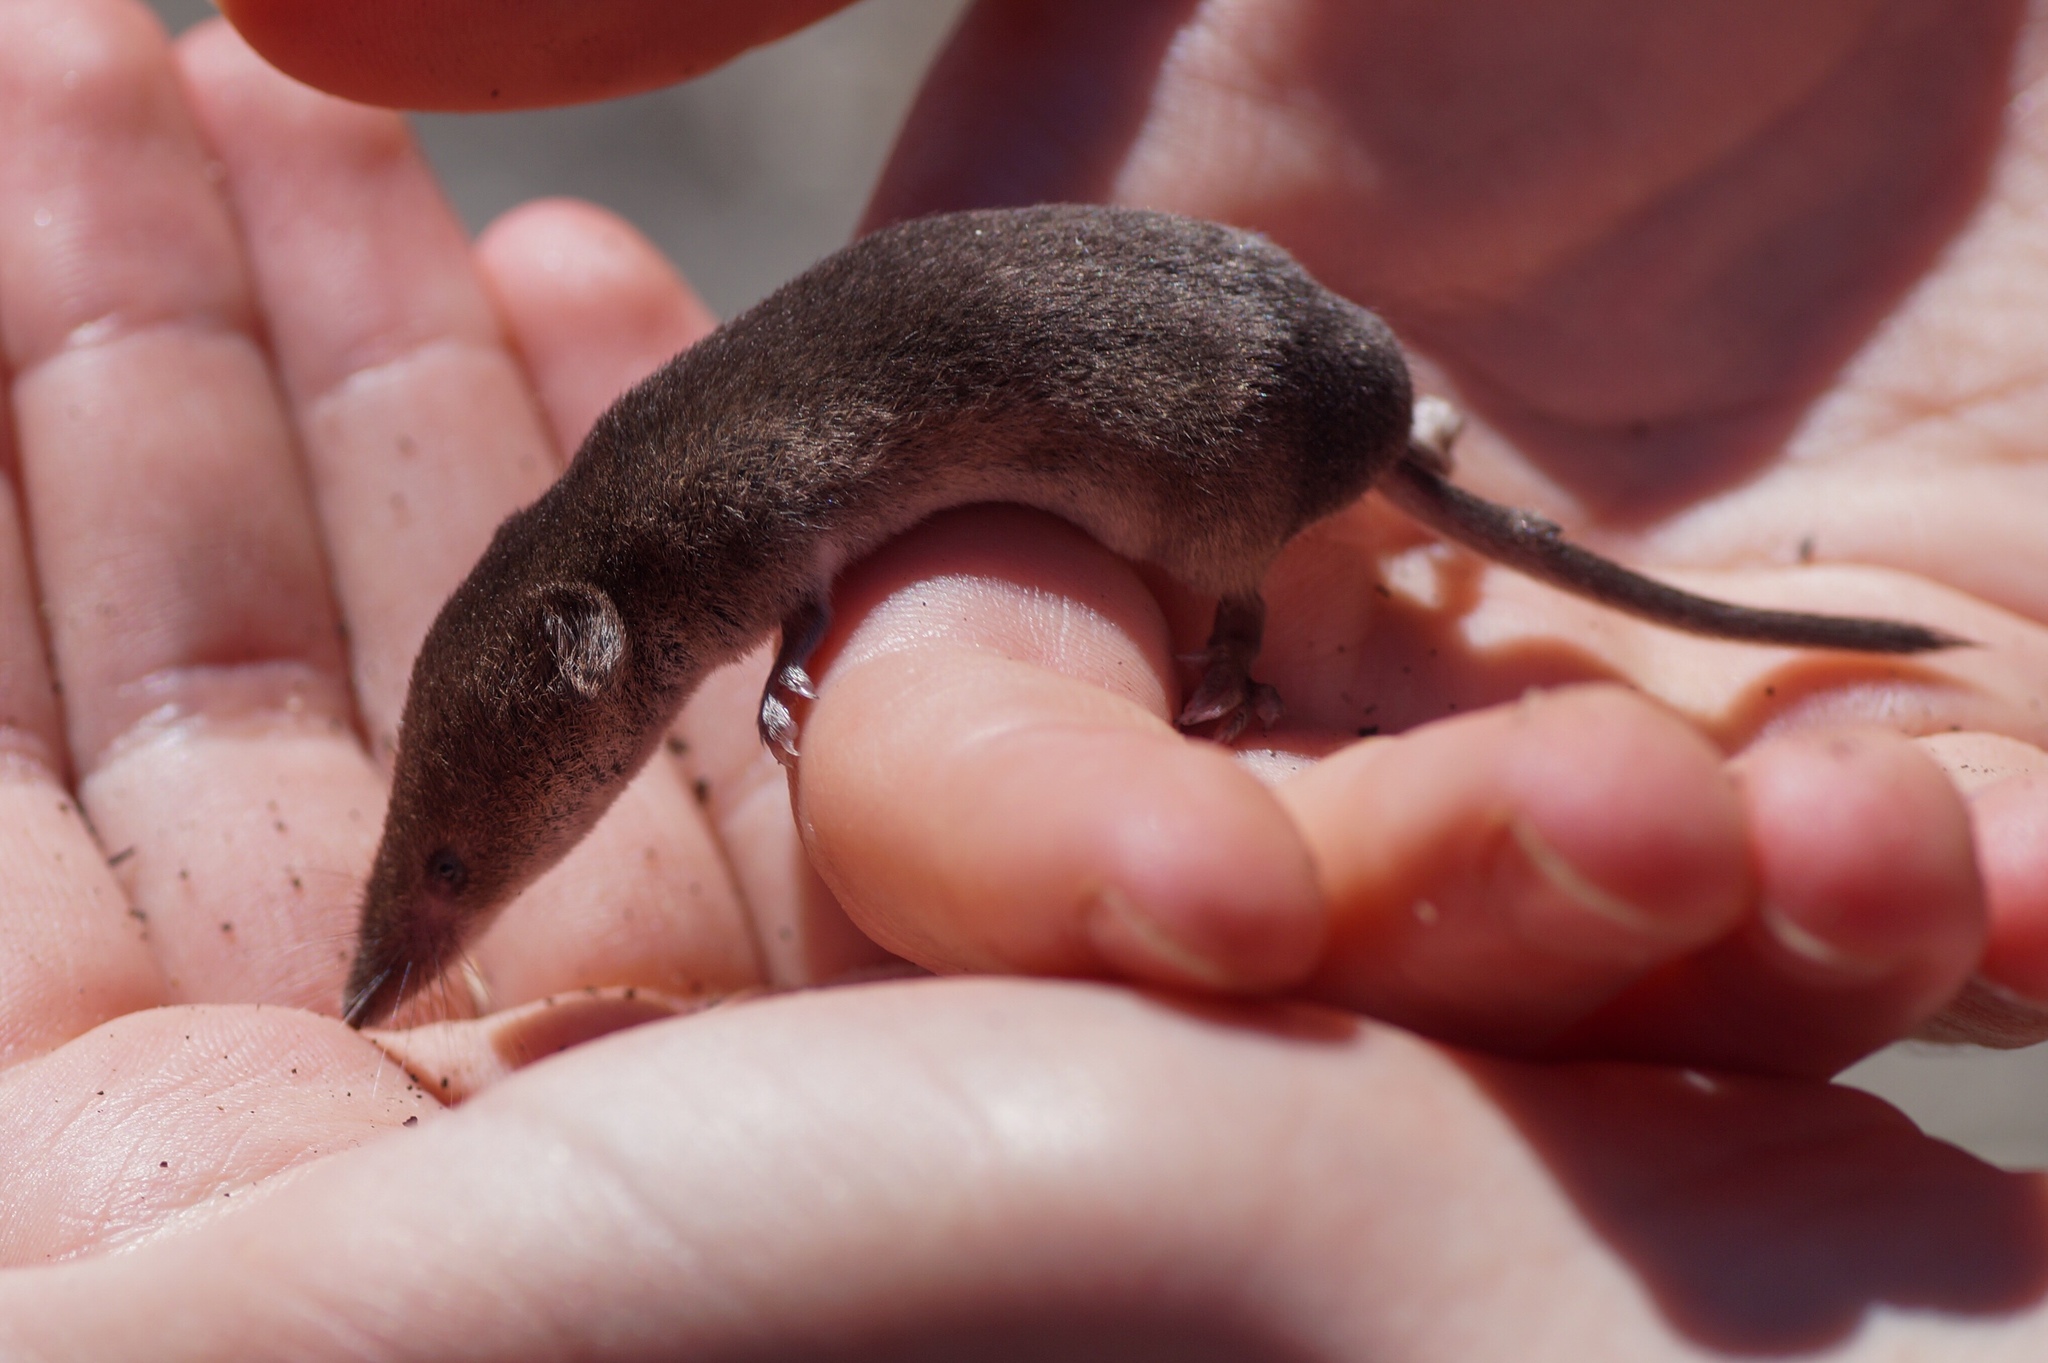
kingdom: Animalia
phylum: Chordata
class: Mammalia
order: Soricomorpha
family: Soricidae
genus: Sorex
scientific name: Sorex araneus
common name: Common shrew
